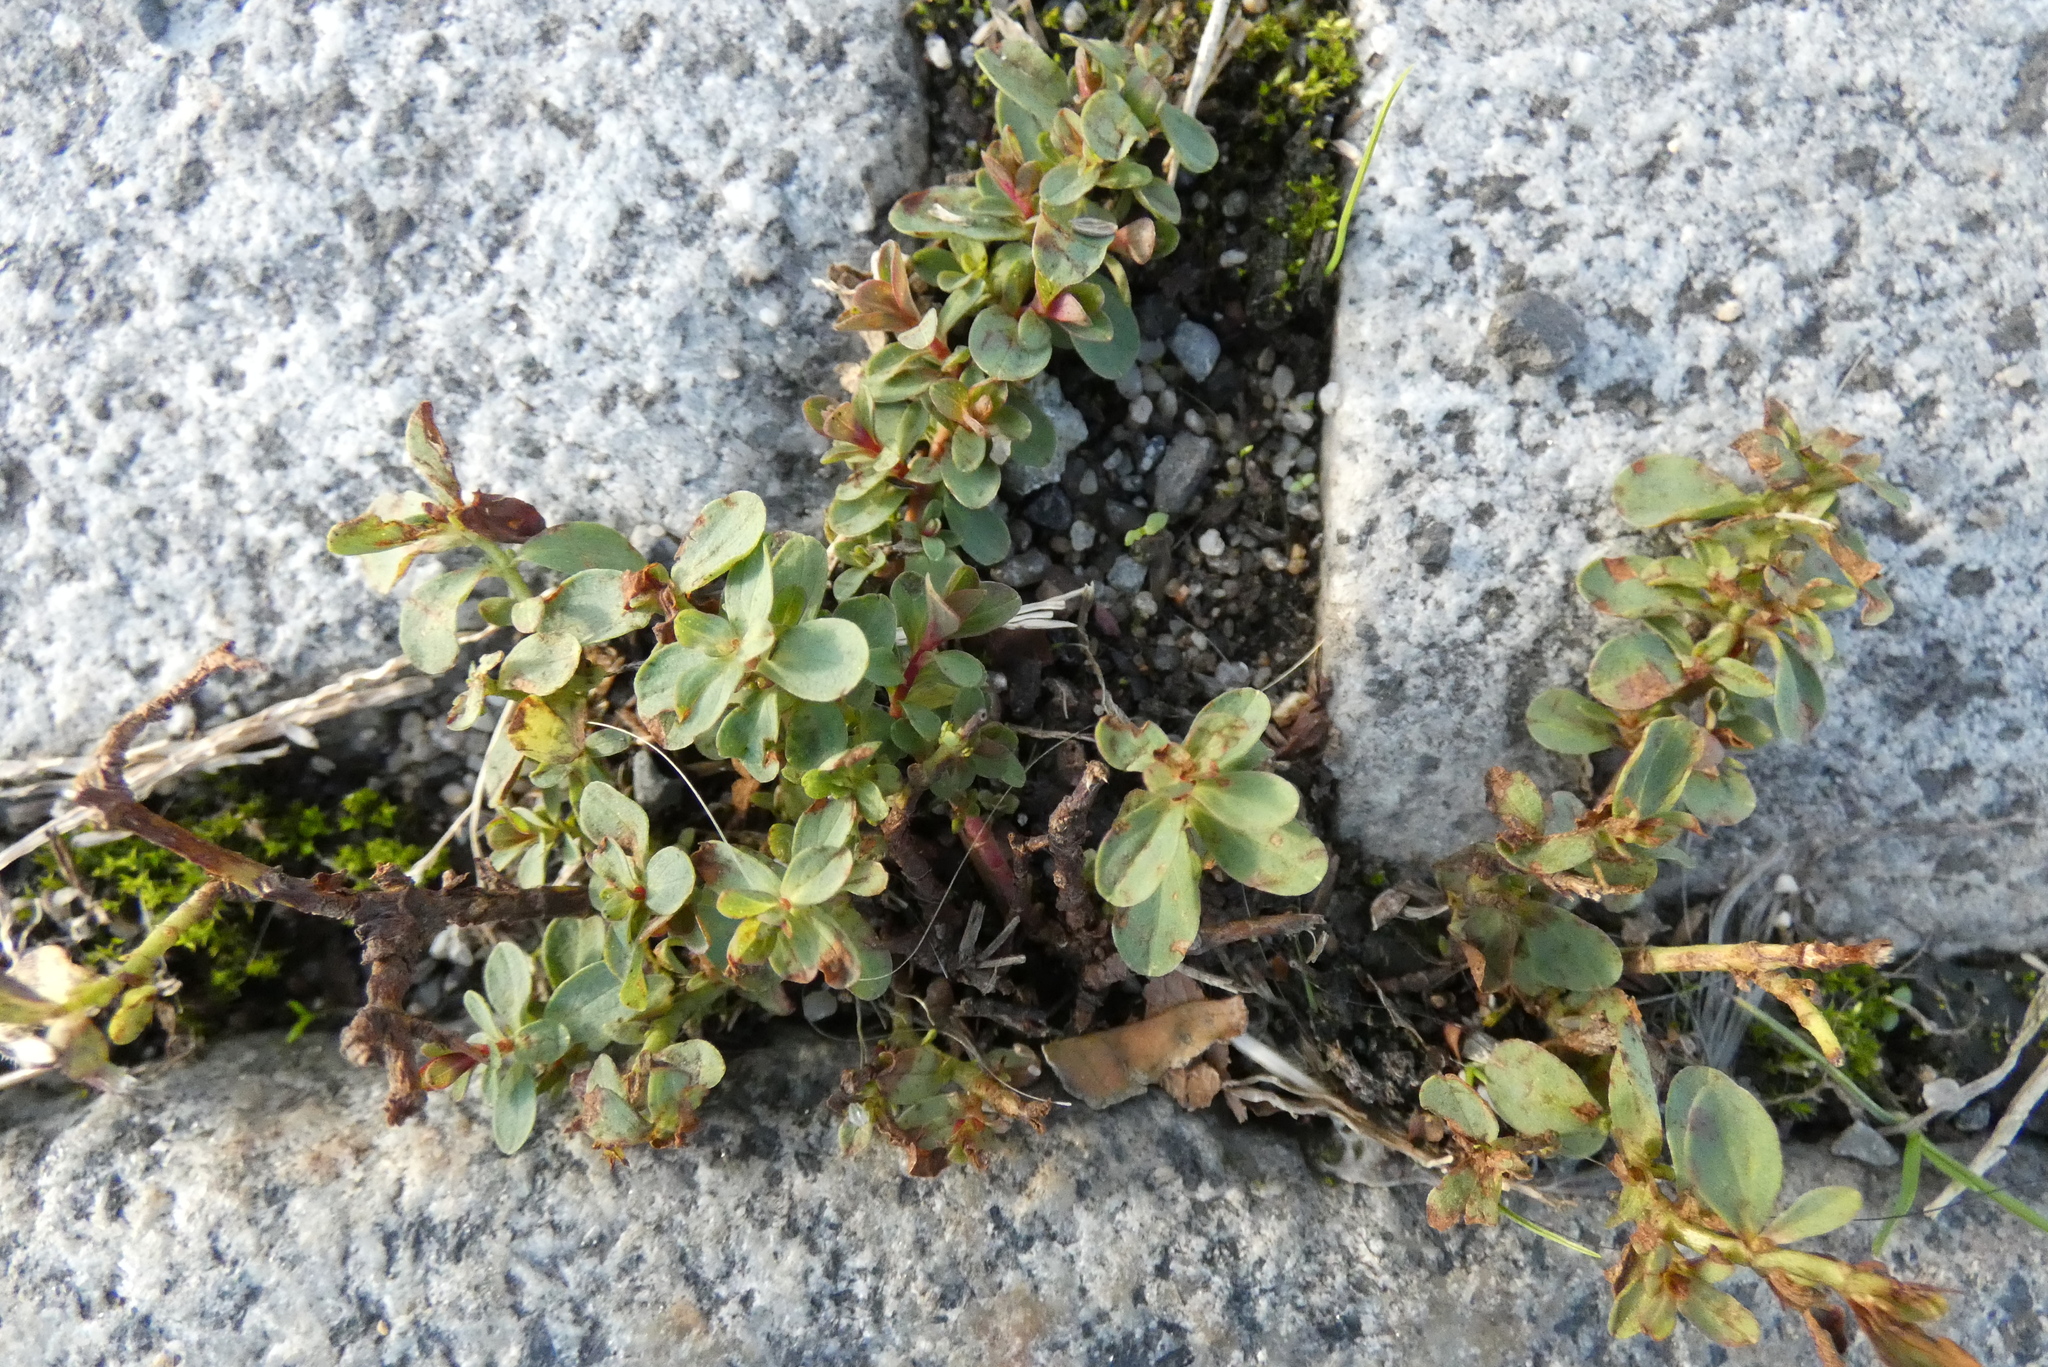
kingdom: Plantae
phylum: Tracheophyta
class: Magnoliopsida
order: Malpighiales
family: Hypericaceae
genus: Hypericum
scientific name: Hypericum perforatum
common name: Common st. johnswort
